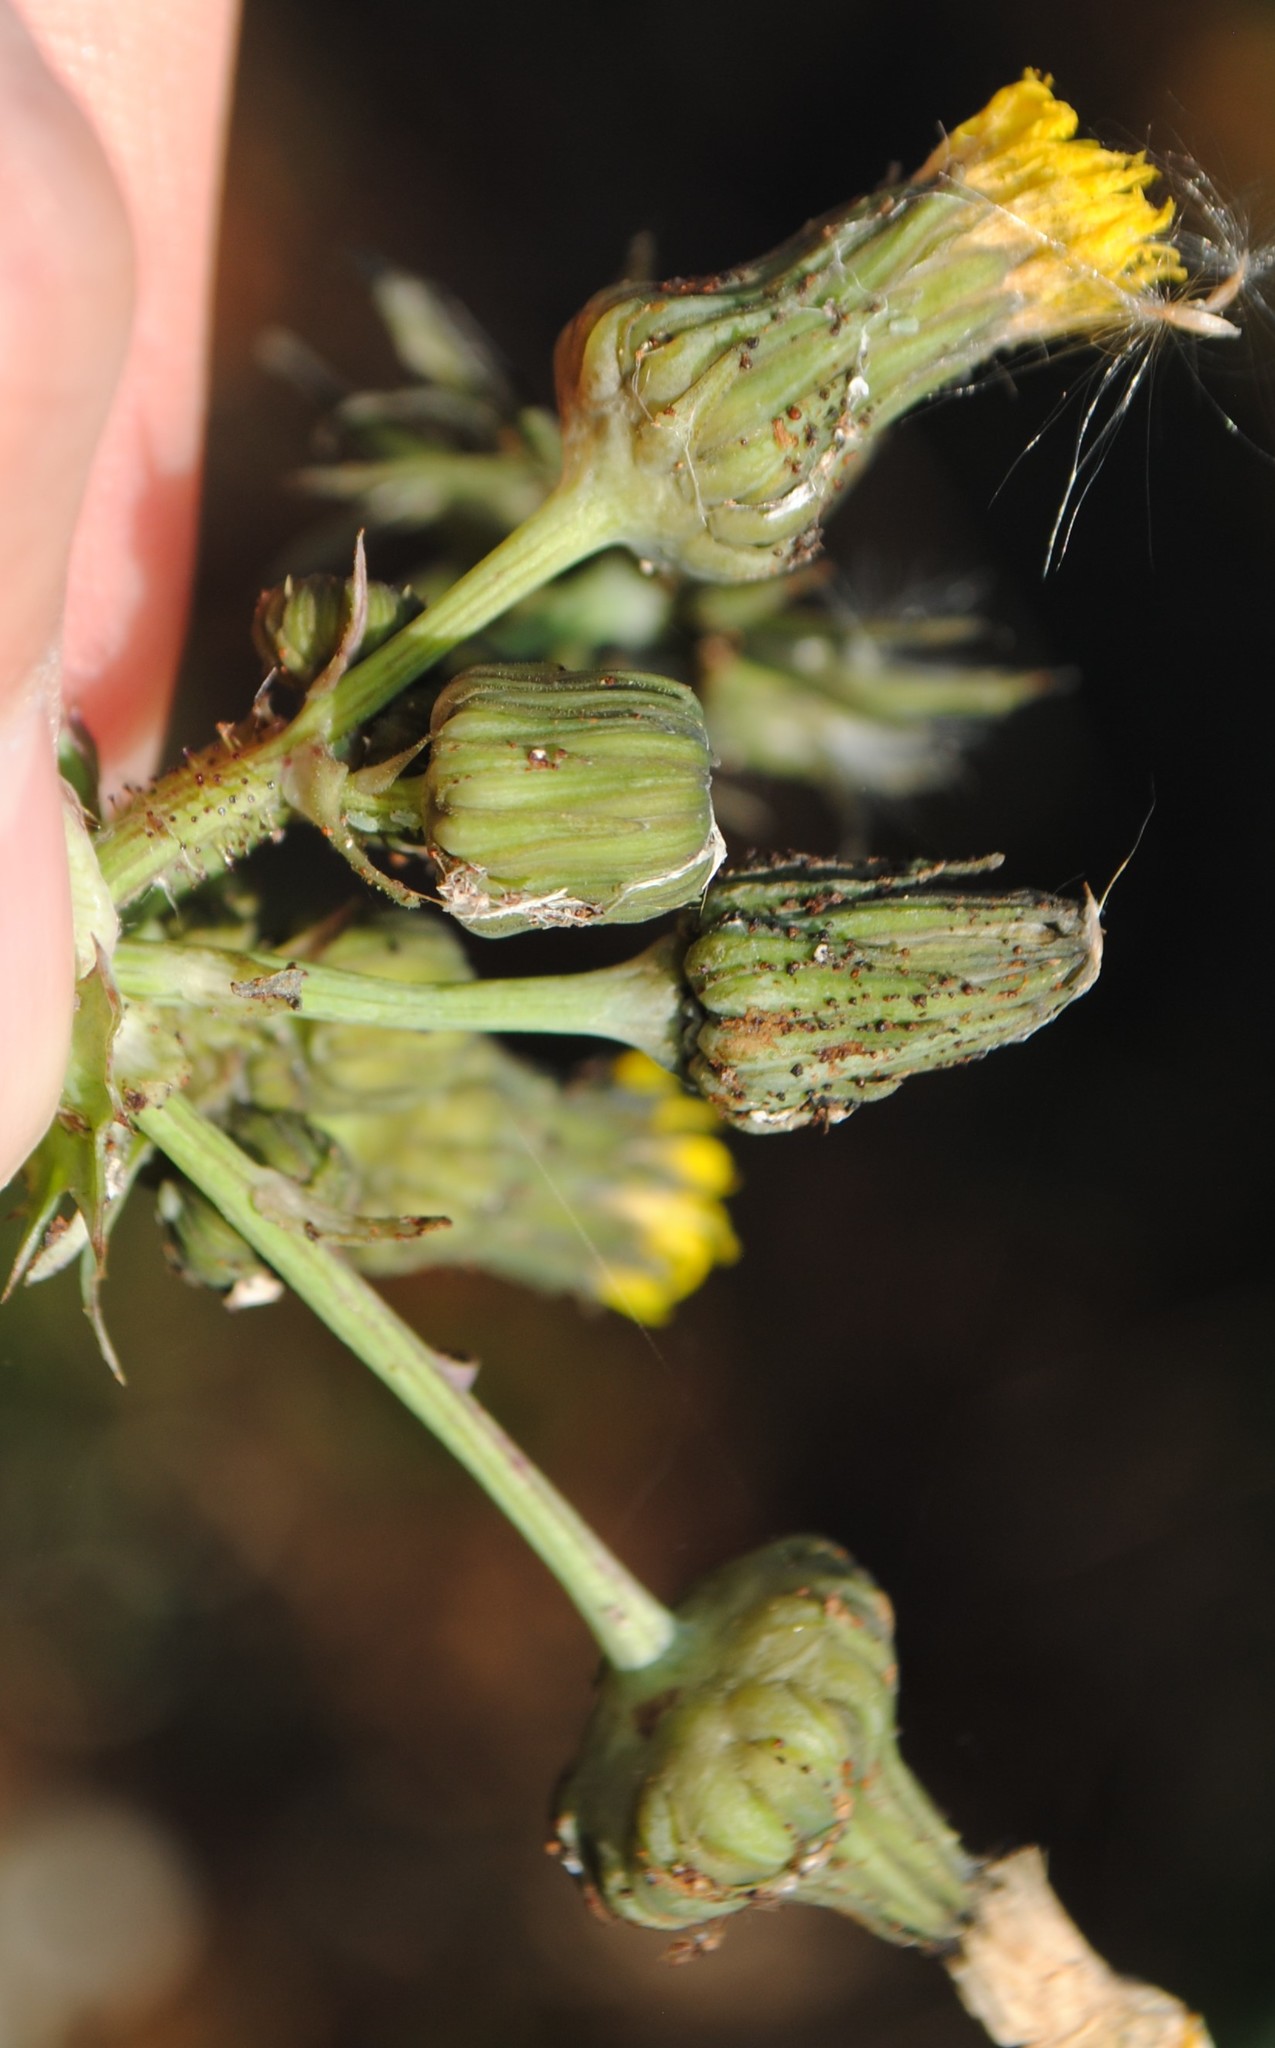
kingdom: Plantae
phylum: Tracheophyta
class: Magnoliopsida
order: Asterales
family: Asteraceae
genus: Sonchus
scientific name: Sonchus asper
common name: Prickly sow-thistle
